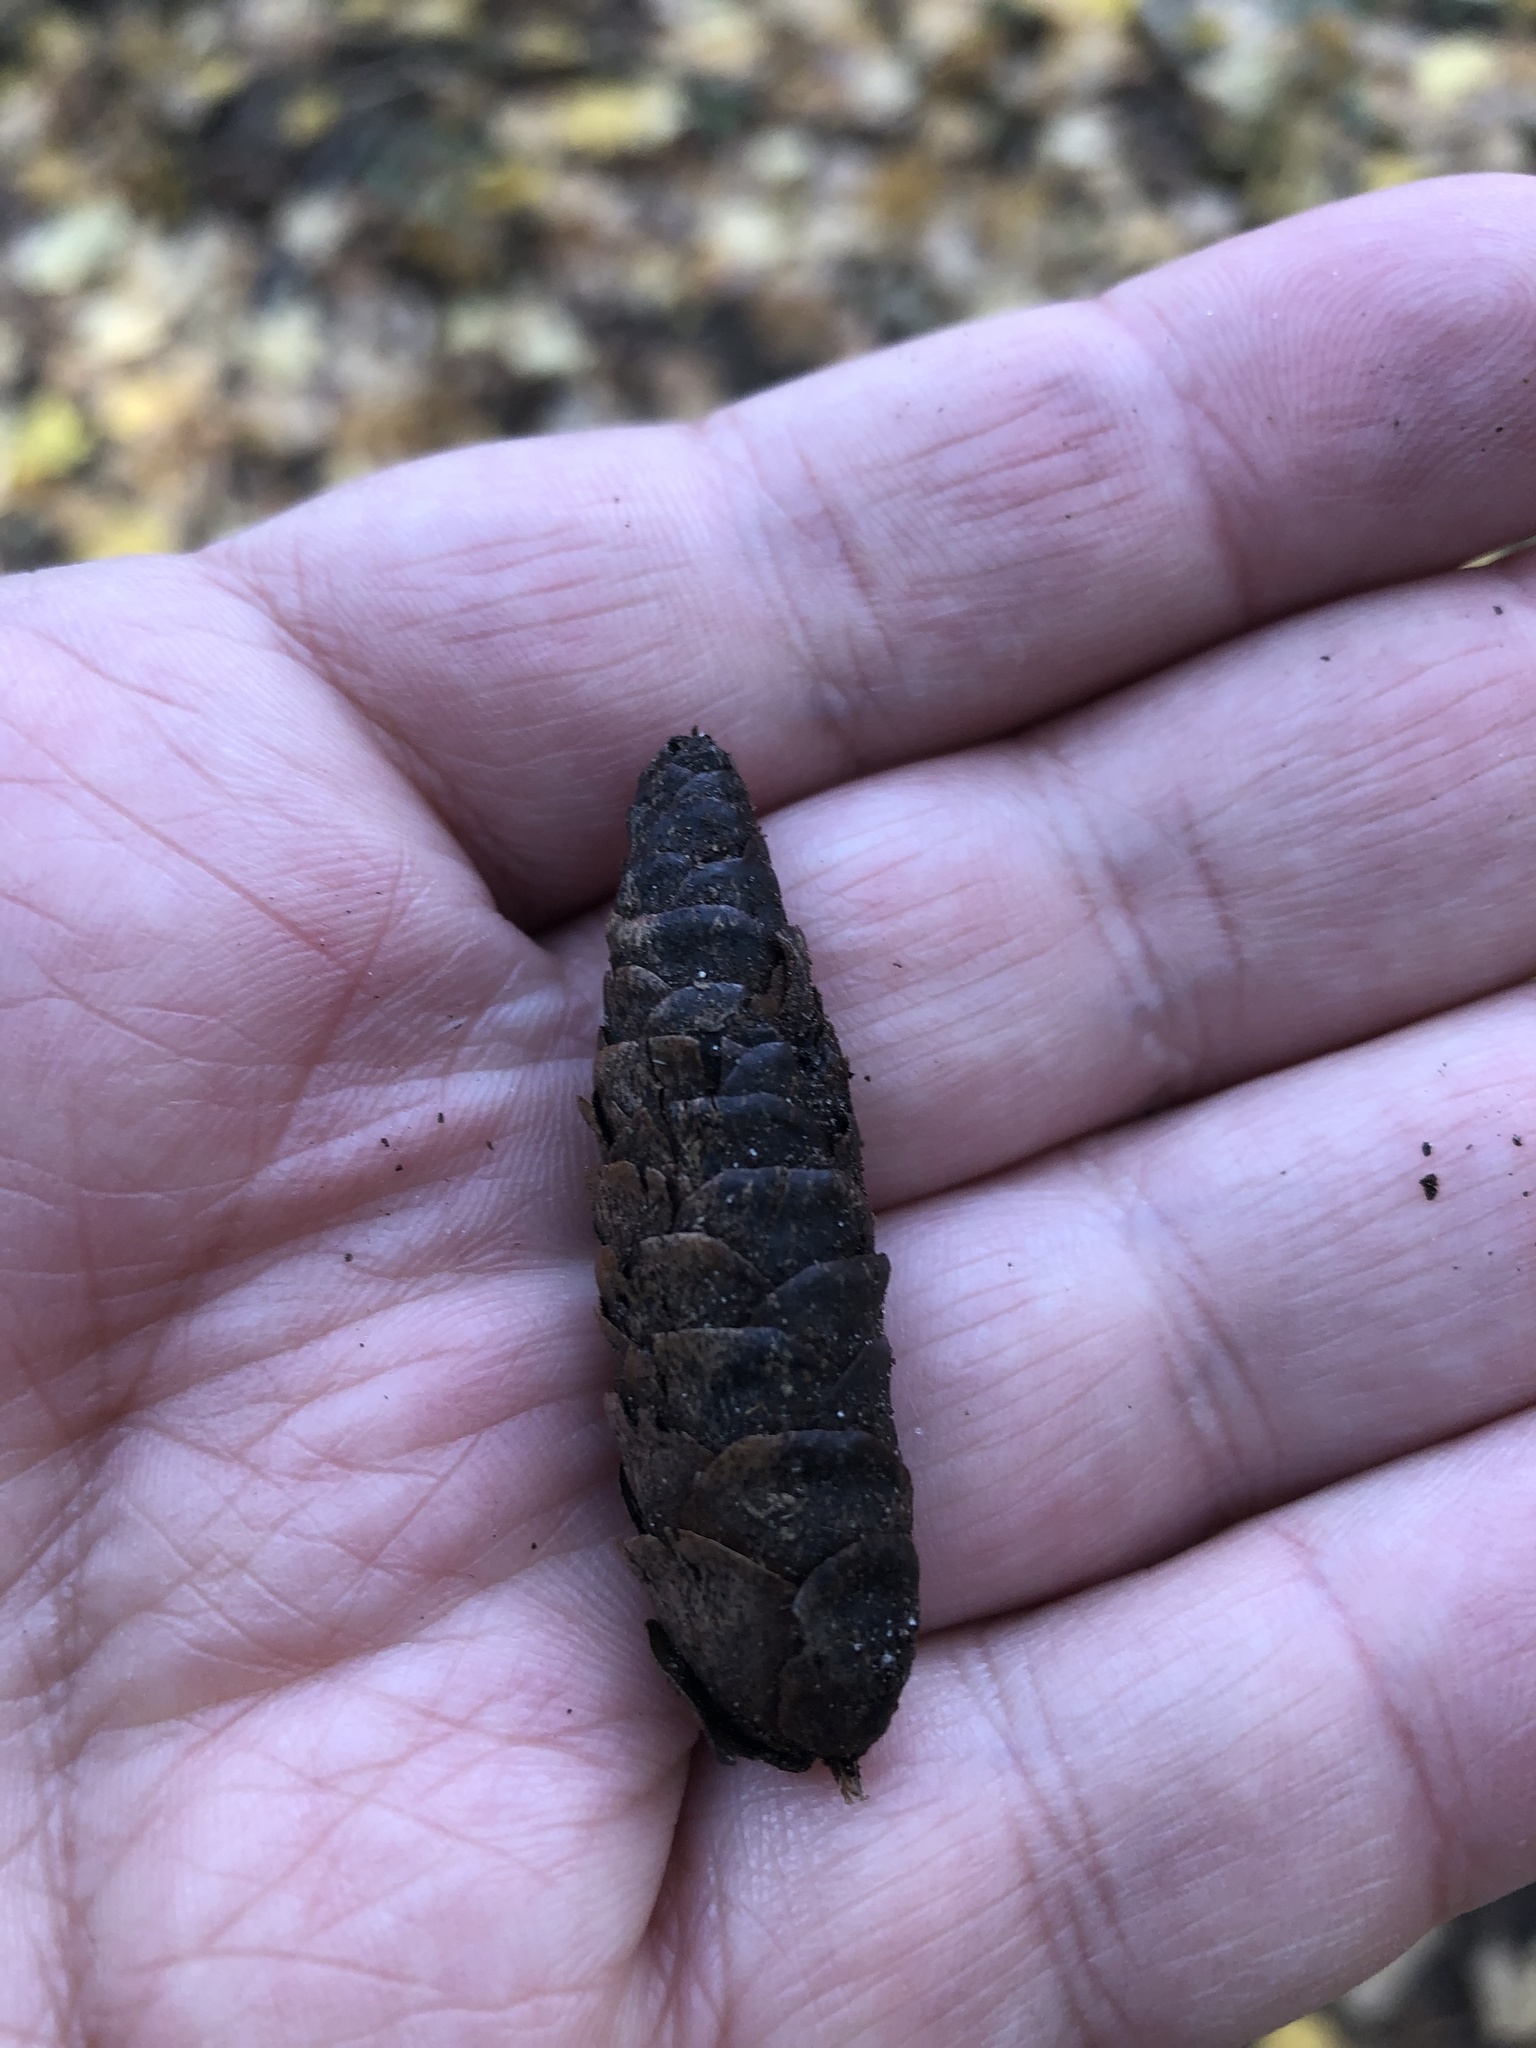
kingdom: Plantae
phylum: Tracheophyta
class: Pinopsida
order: Pinales
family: Pinaceae
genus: Picea
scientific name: Picea glauca
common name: White spruce
